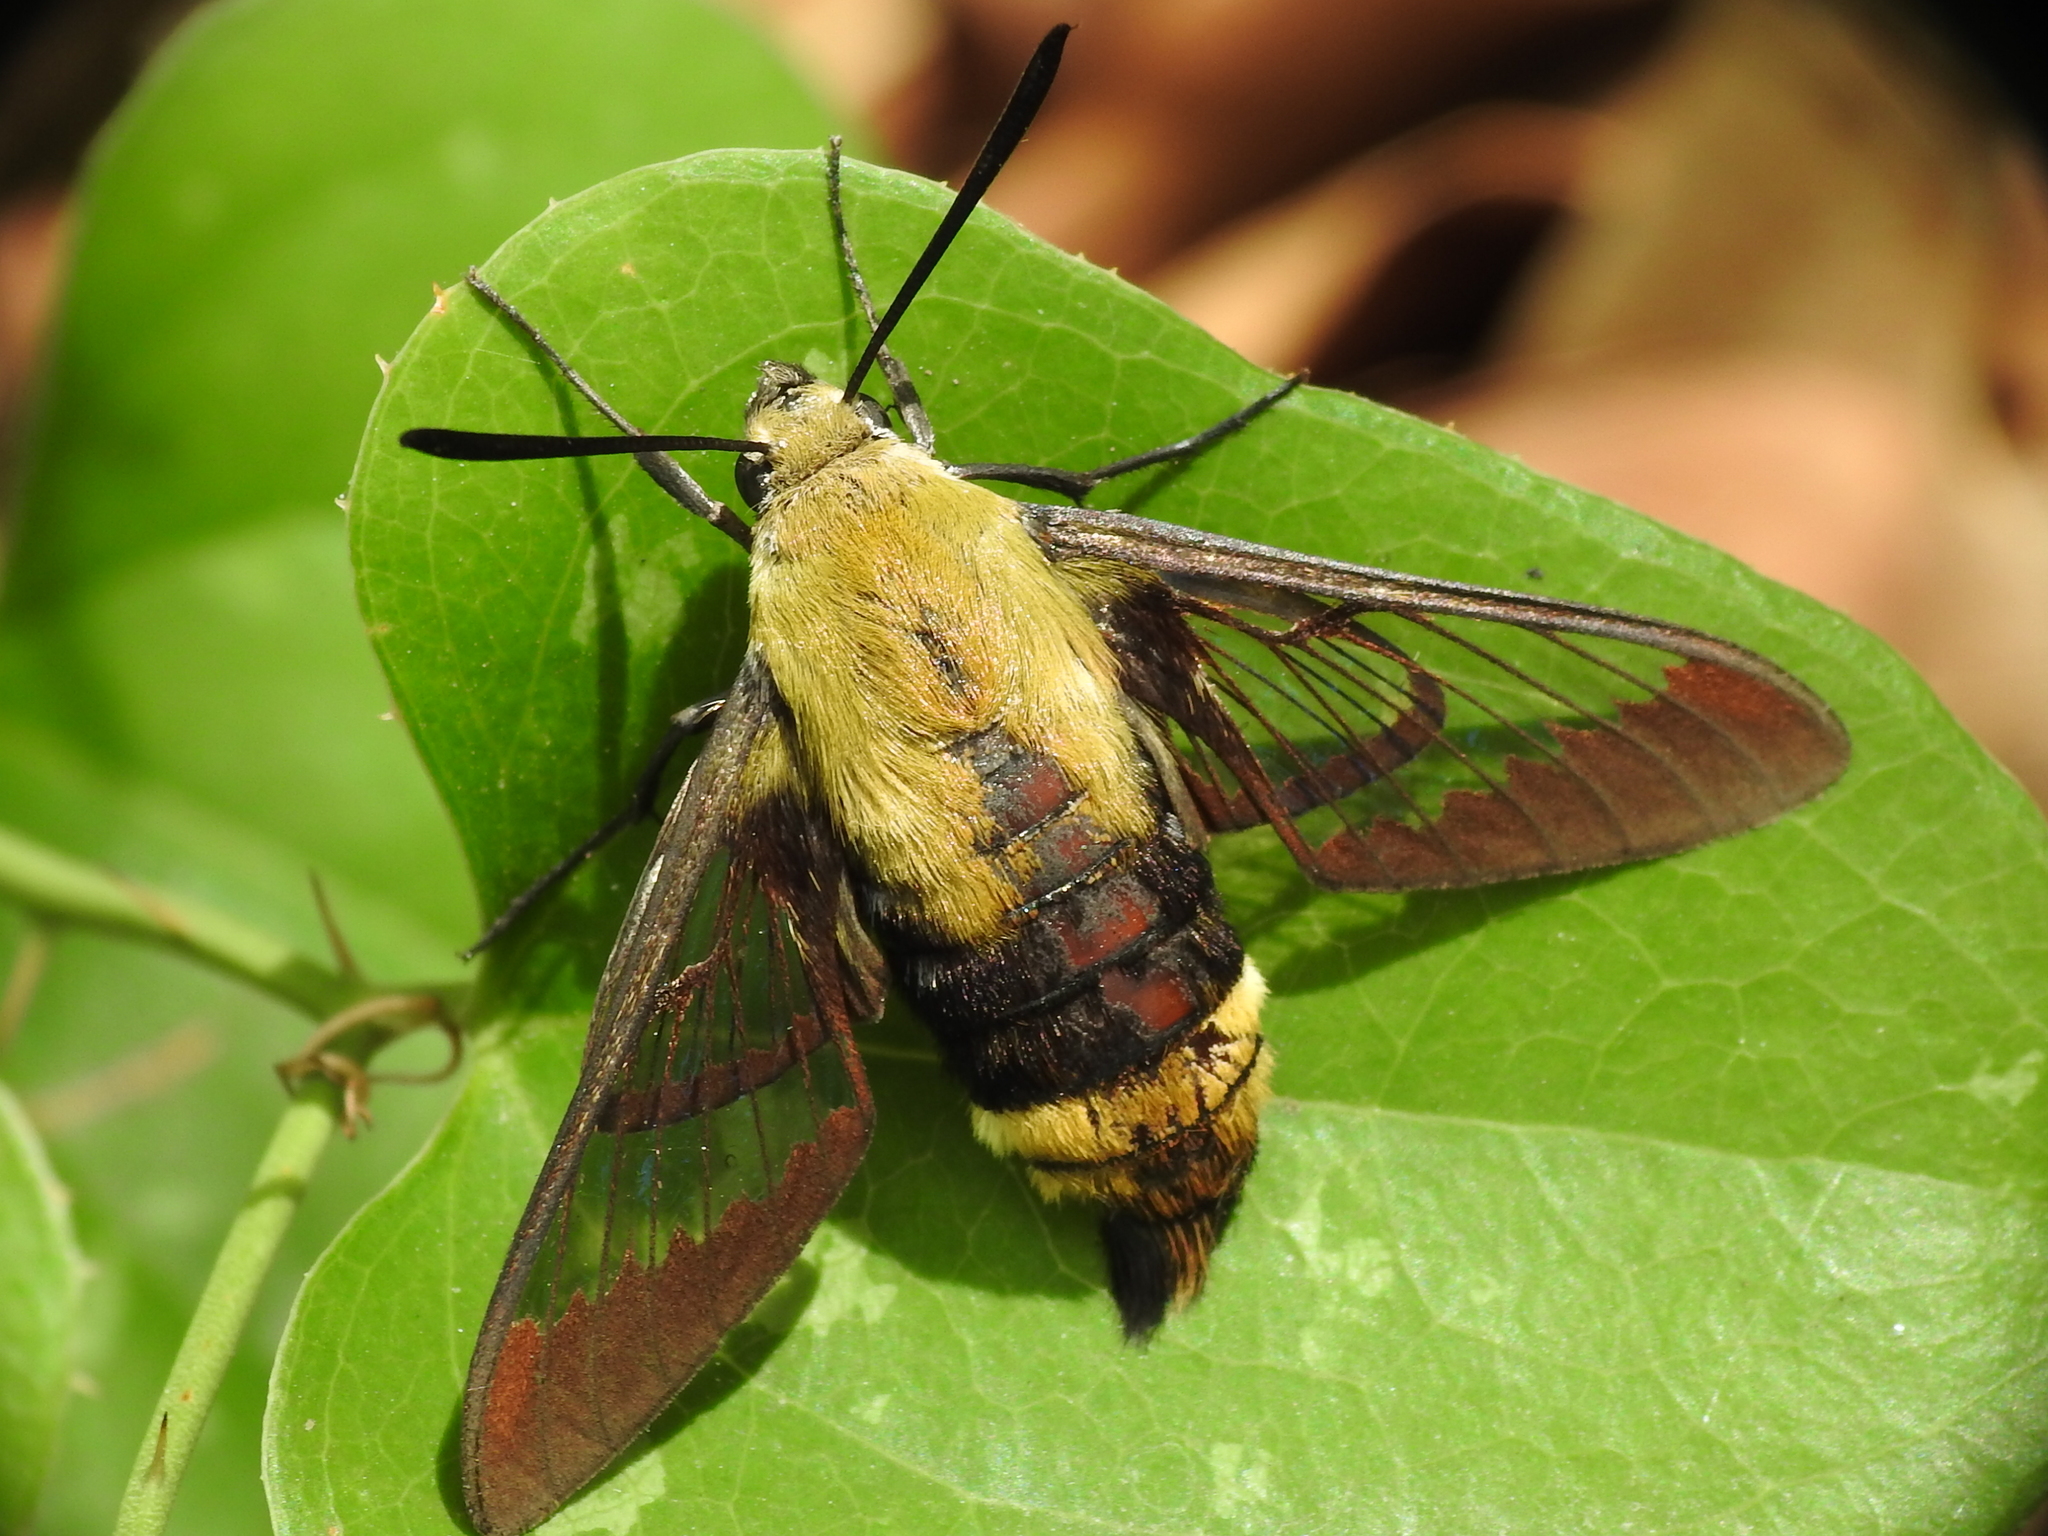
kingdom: Animalia
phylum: Arthropoda
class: Insecta
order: Lepidoptera
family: Sphingidae
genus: Hemaris
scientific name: Hemaris diffinis
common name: Bumblebee moth
